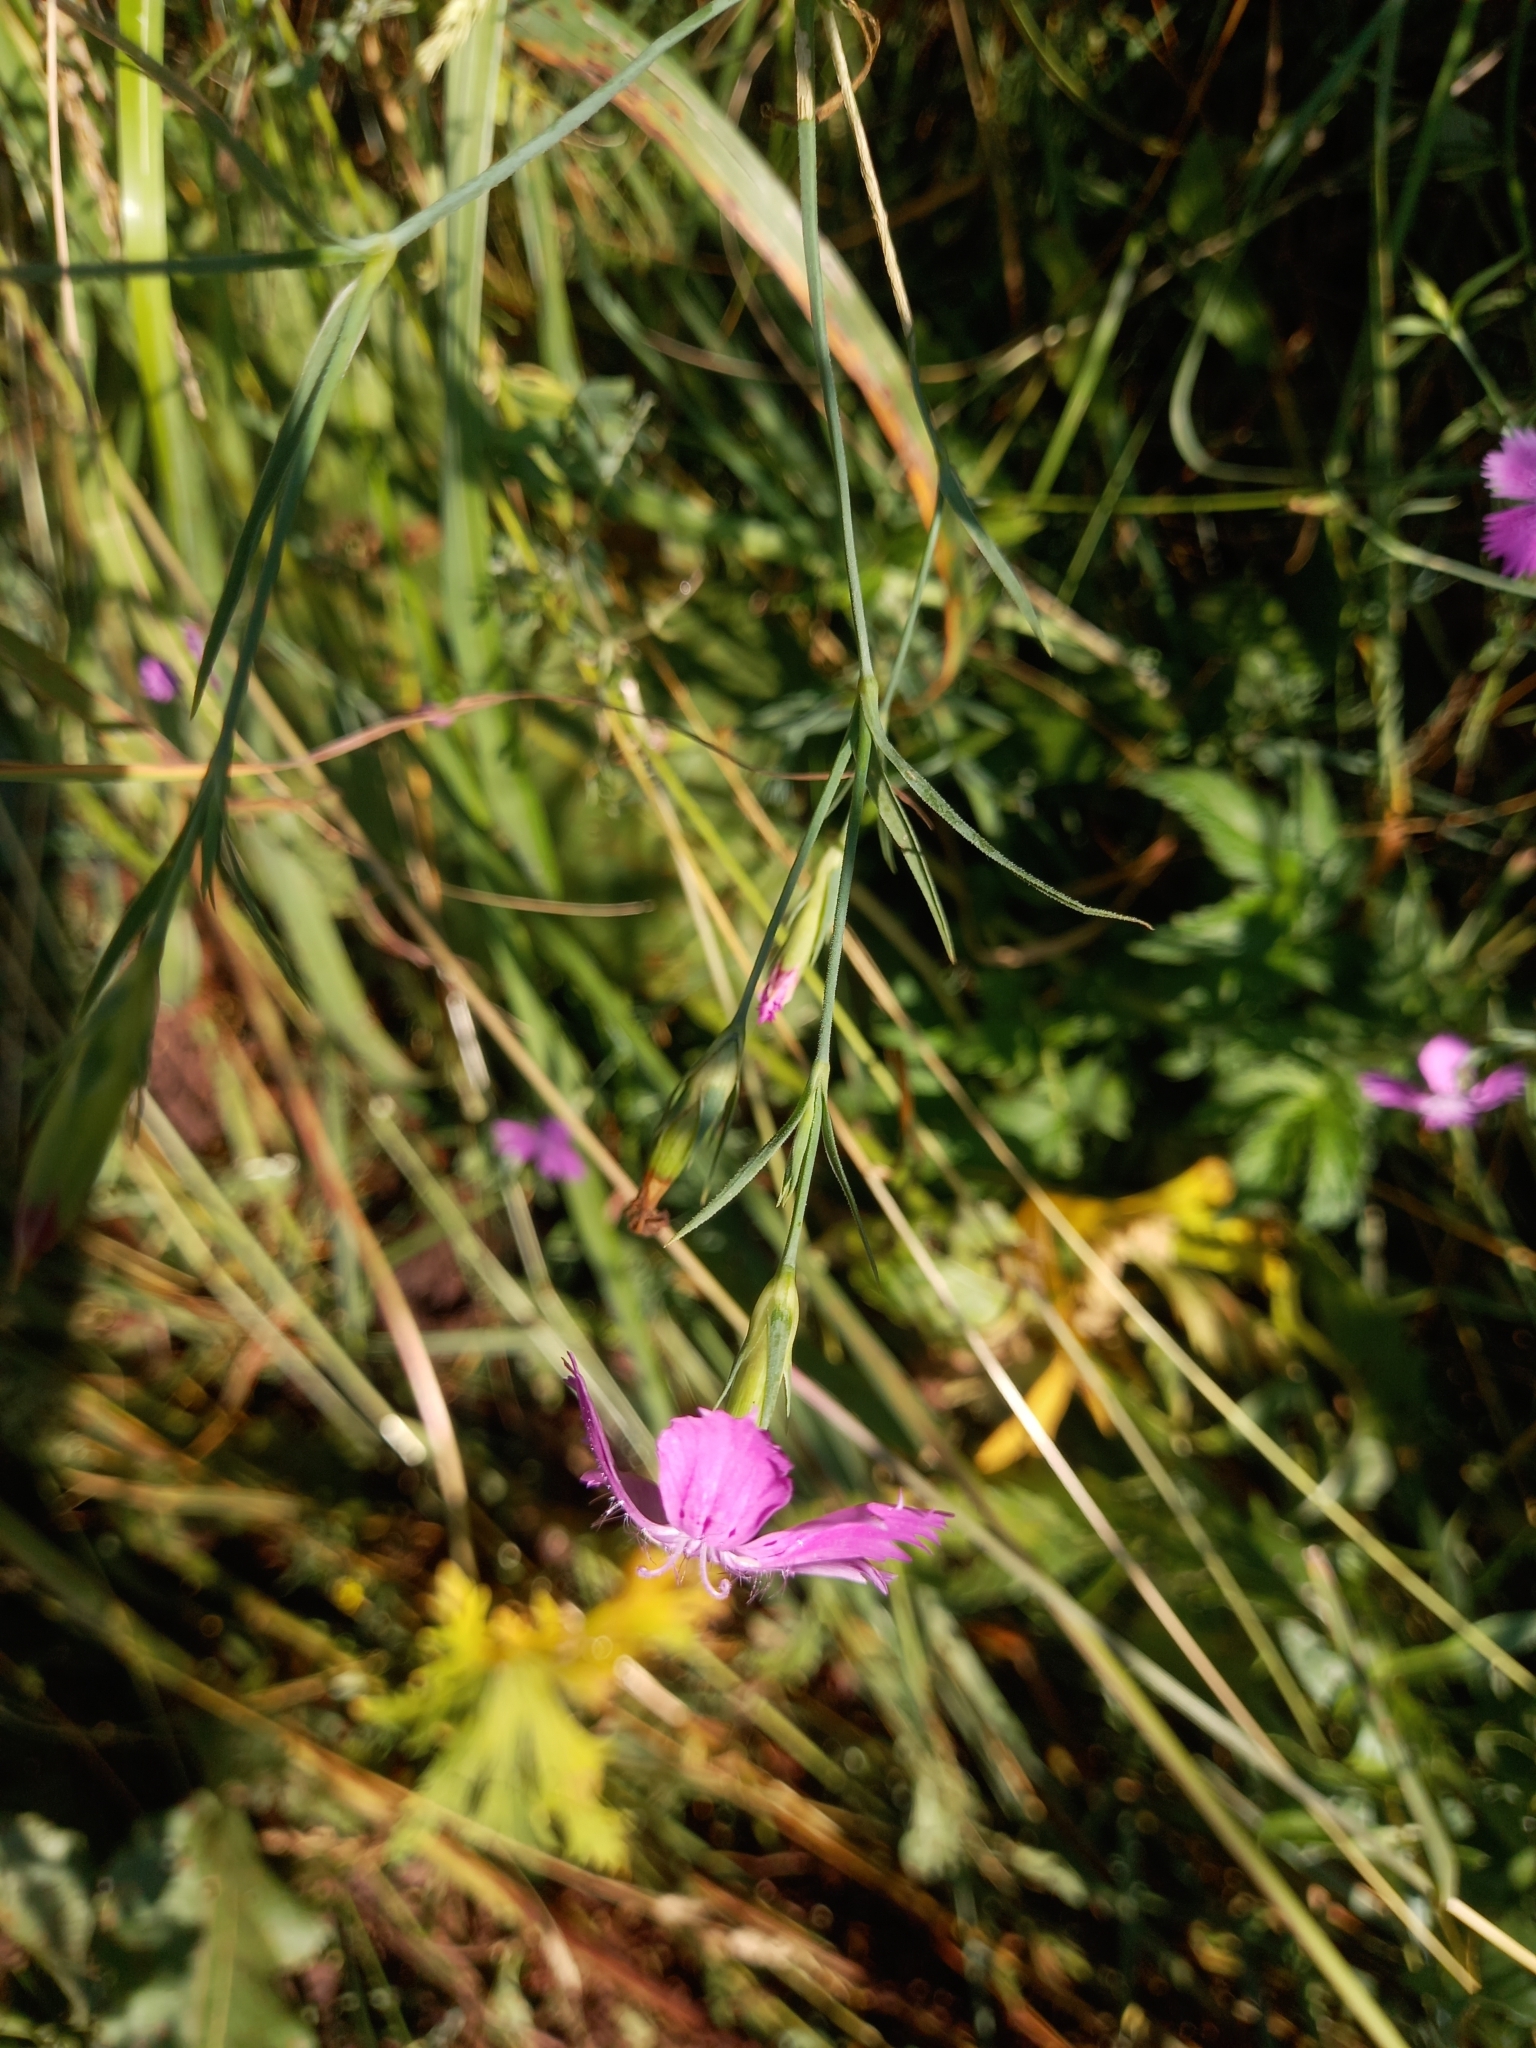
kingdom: Plantae
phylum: Tracheophyta
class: Magnoliopsida
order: Caryophyllales
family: Caryophyllaceae
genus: Dianthus
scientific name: Dianthus chinensis
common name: Rainbow pink
